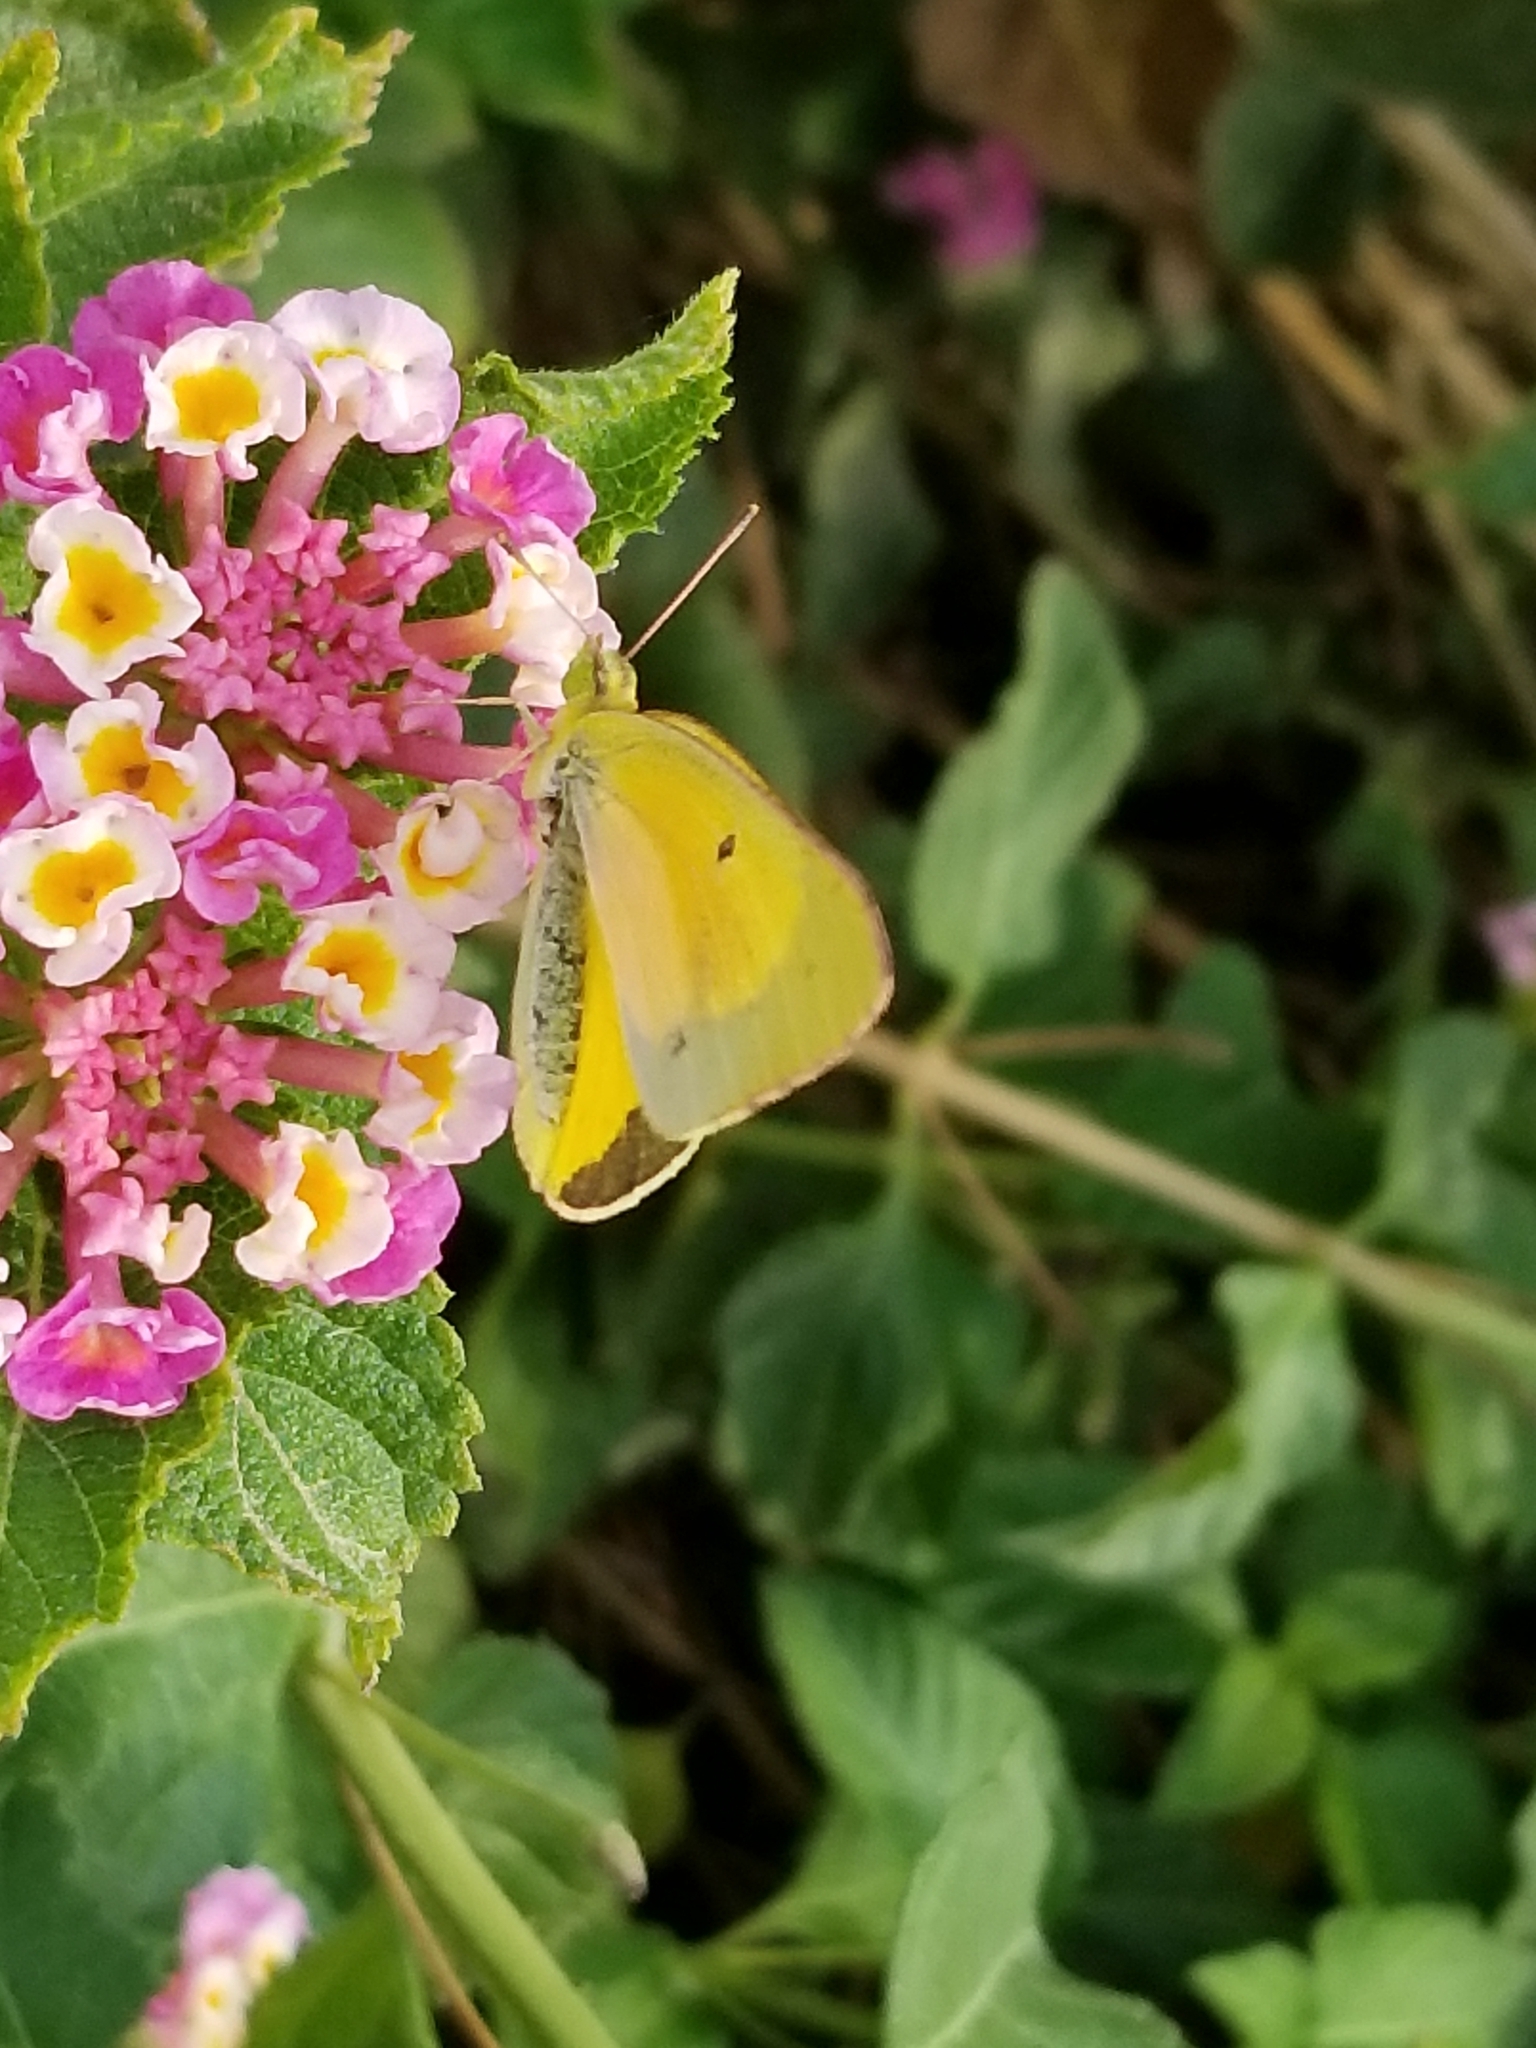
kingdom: Animalia
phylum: Arthropoda
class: Insecta
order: Lepidoptera
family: Pieridae
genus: Colias
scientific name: Colias eurytheme
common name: Alfalfa butterfly
